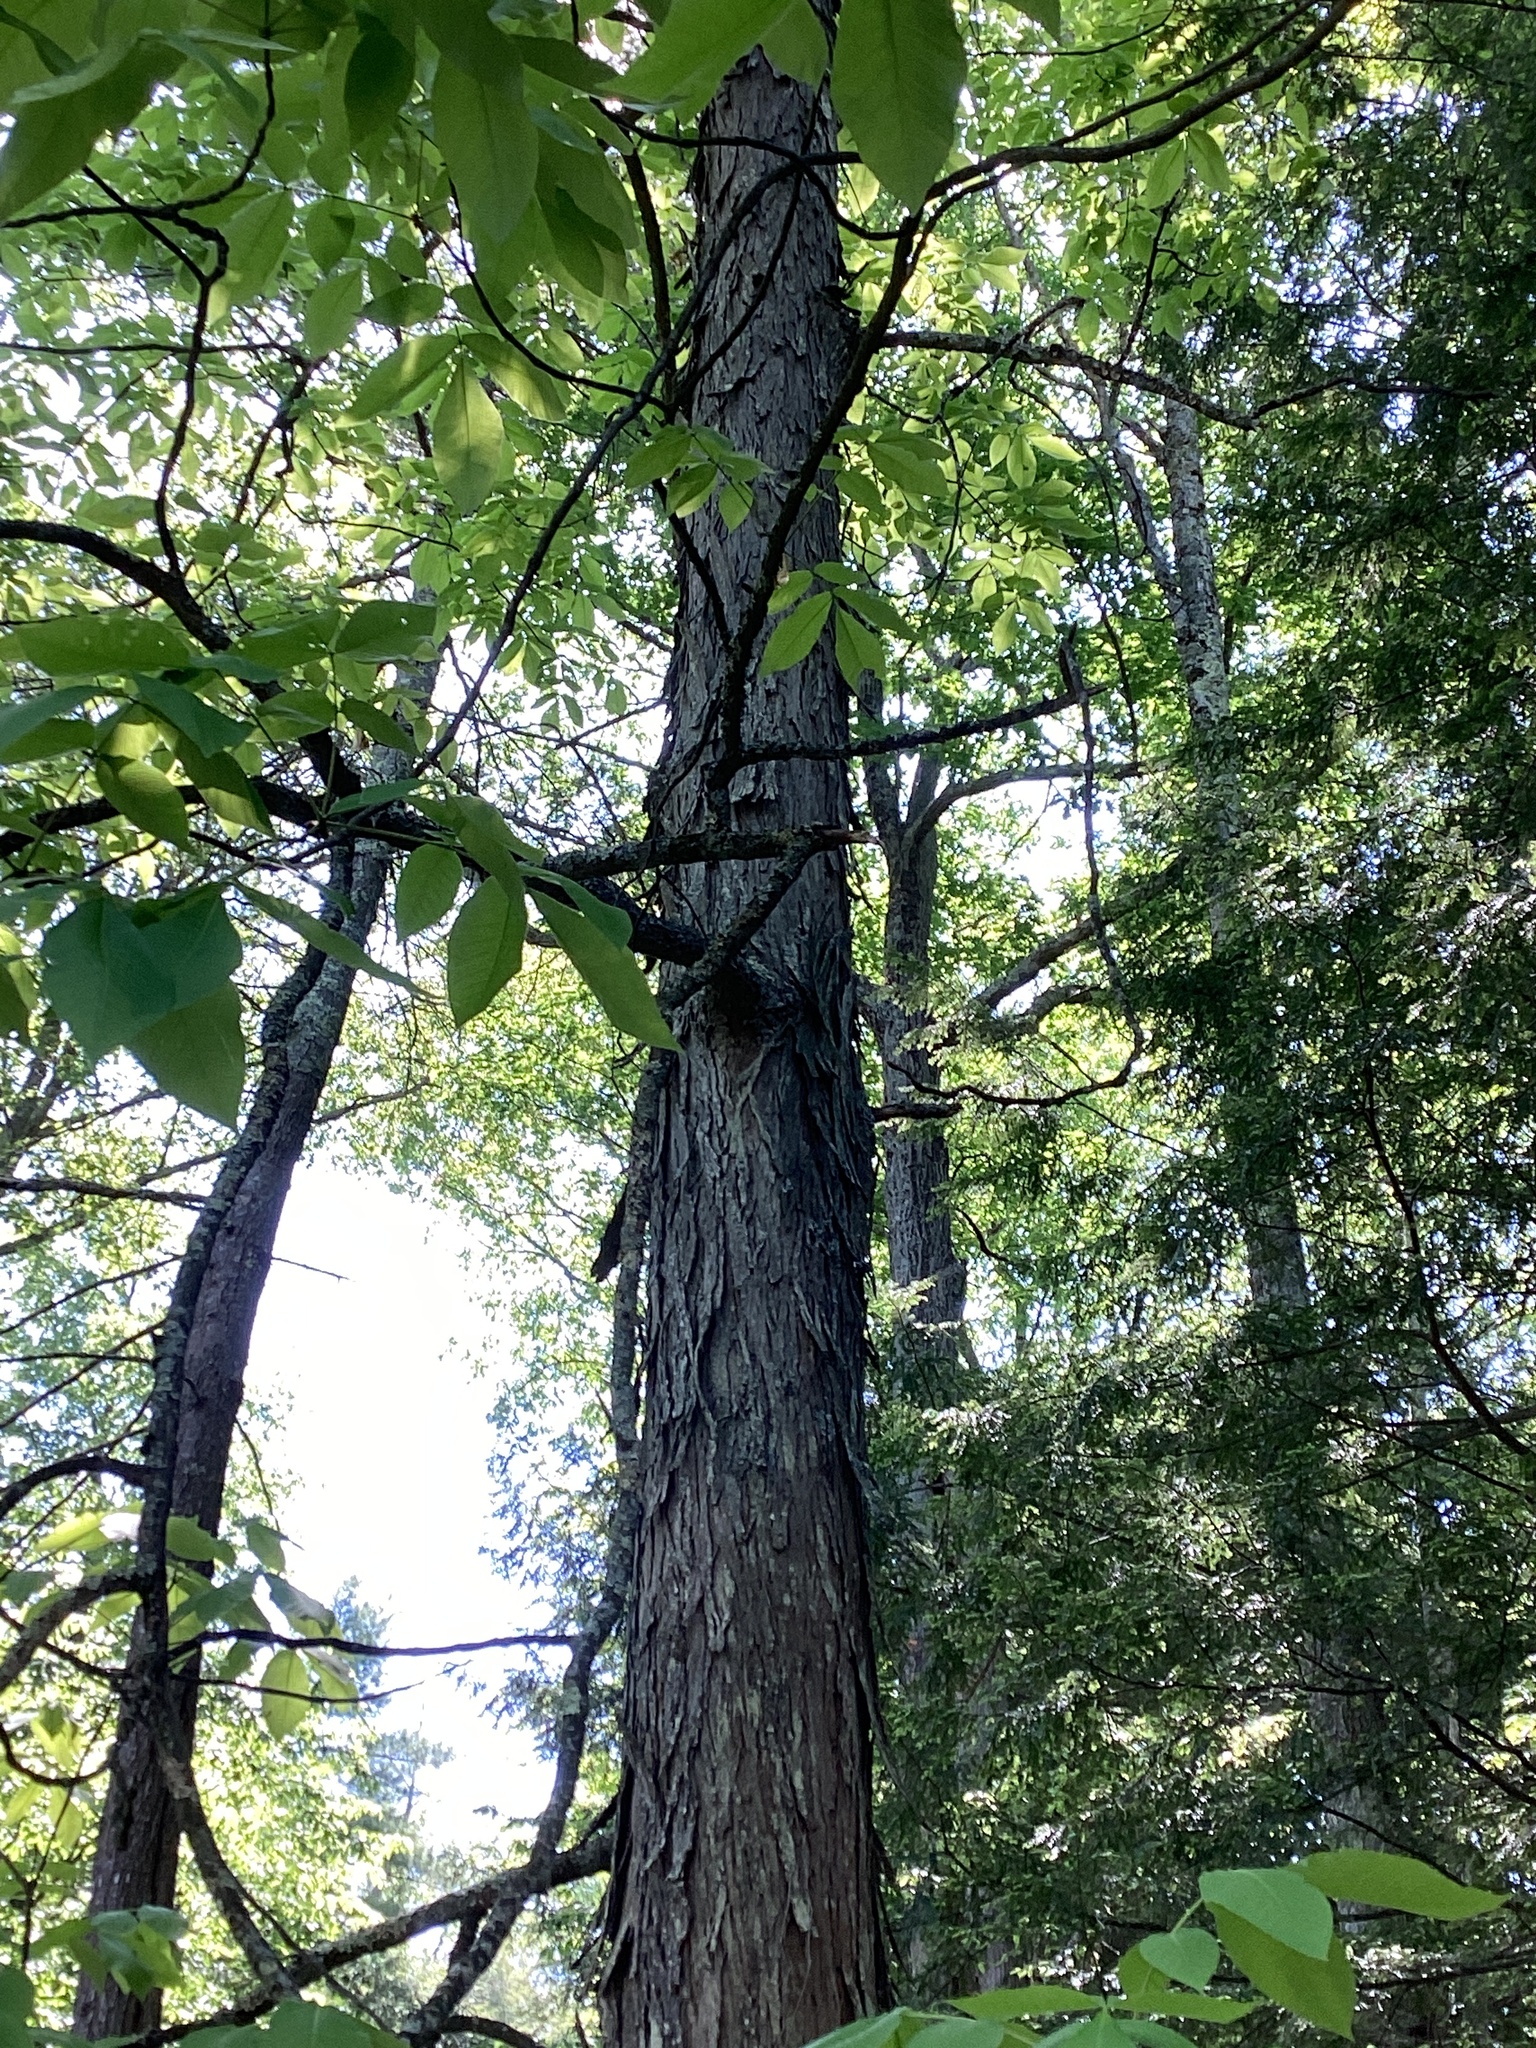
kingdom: Plantae
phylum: Tracheophyta
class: Magnoliopsida
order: Fagales
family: Juglandaceae
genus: Carya
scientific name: Carya ovata
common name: Shagbark hickory
